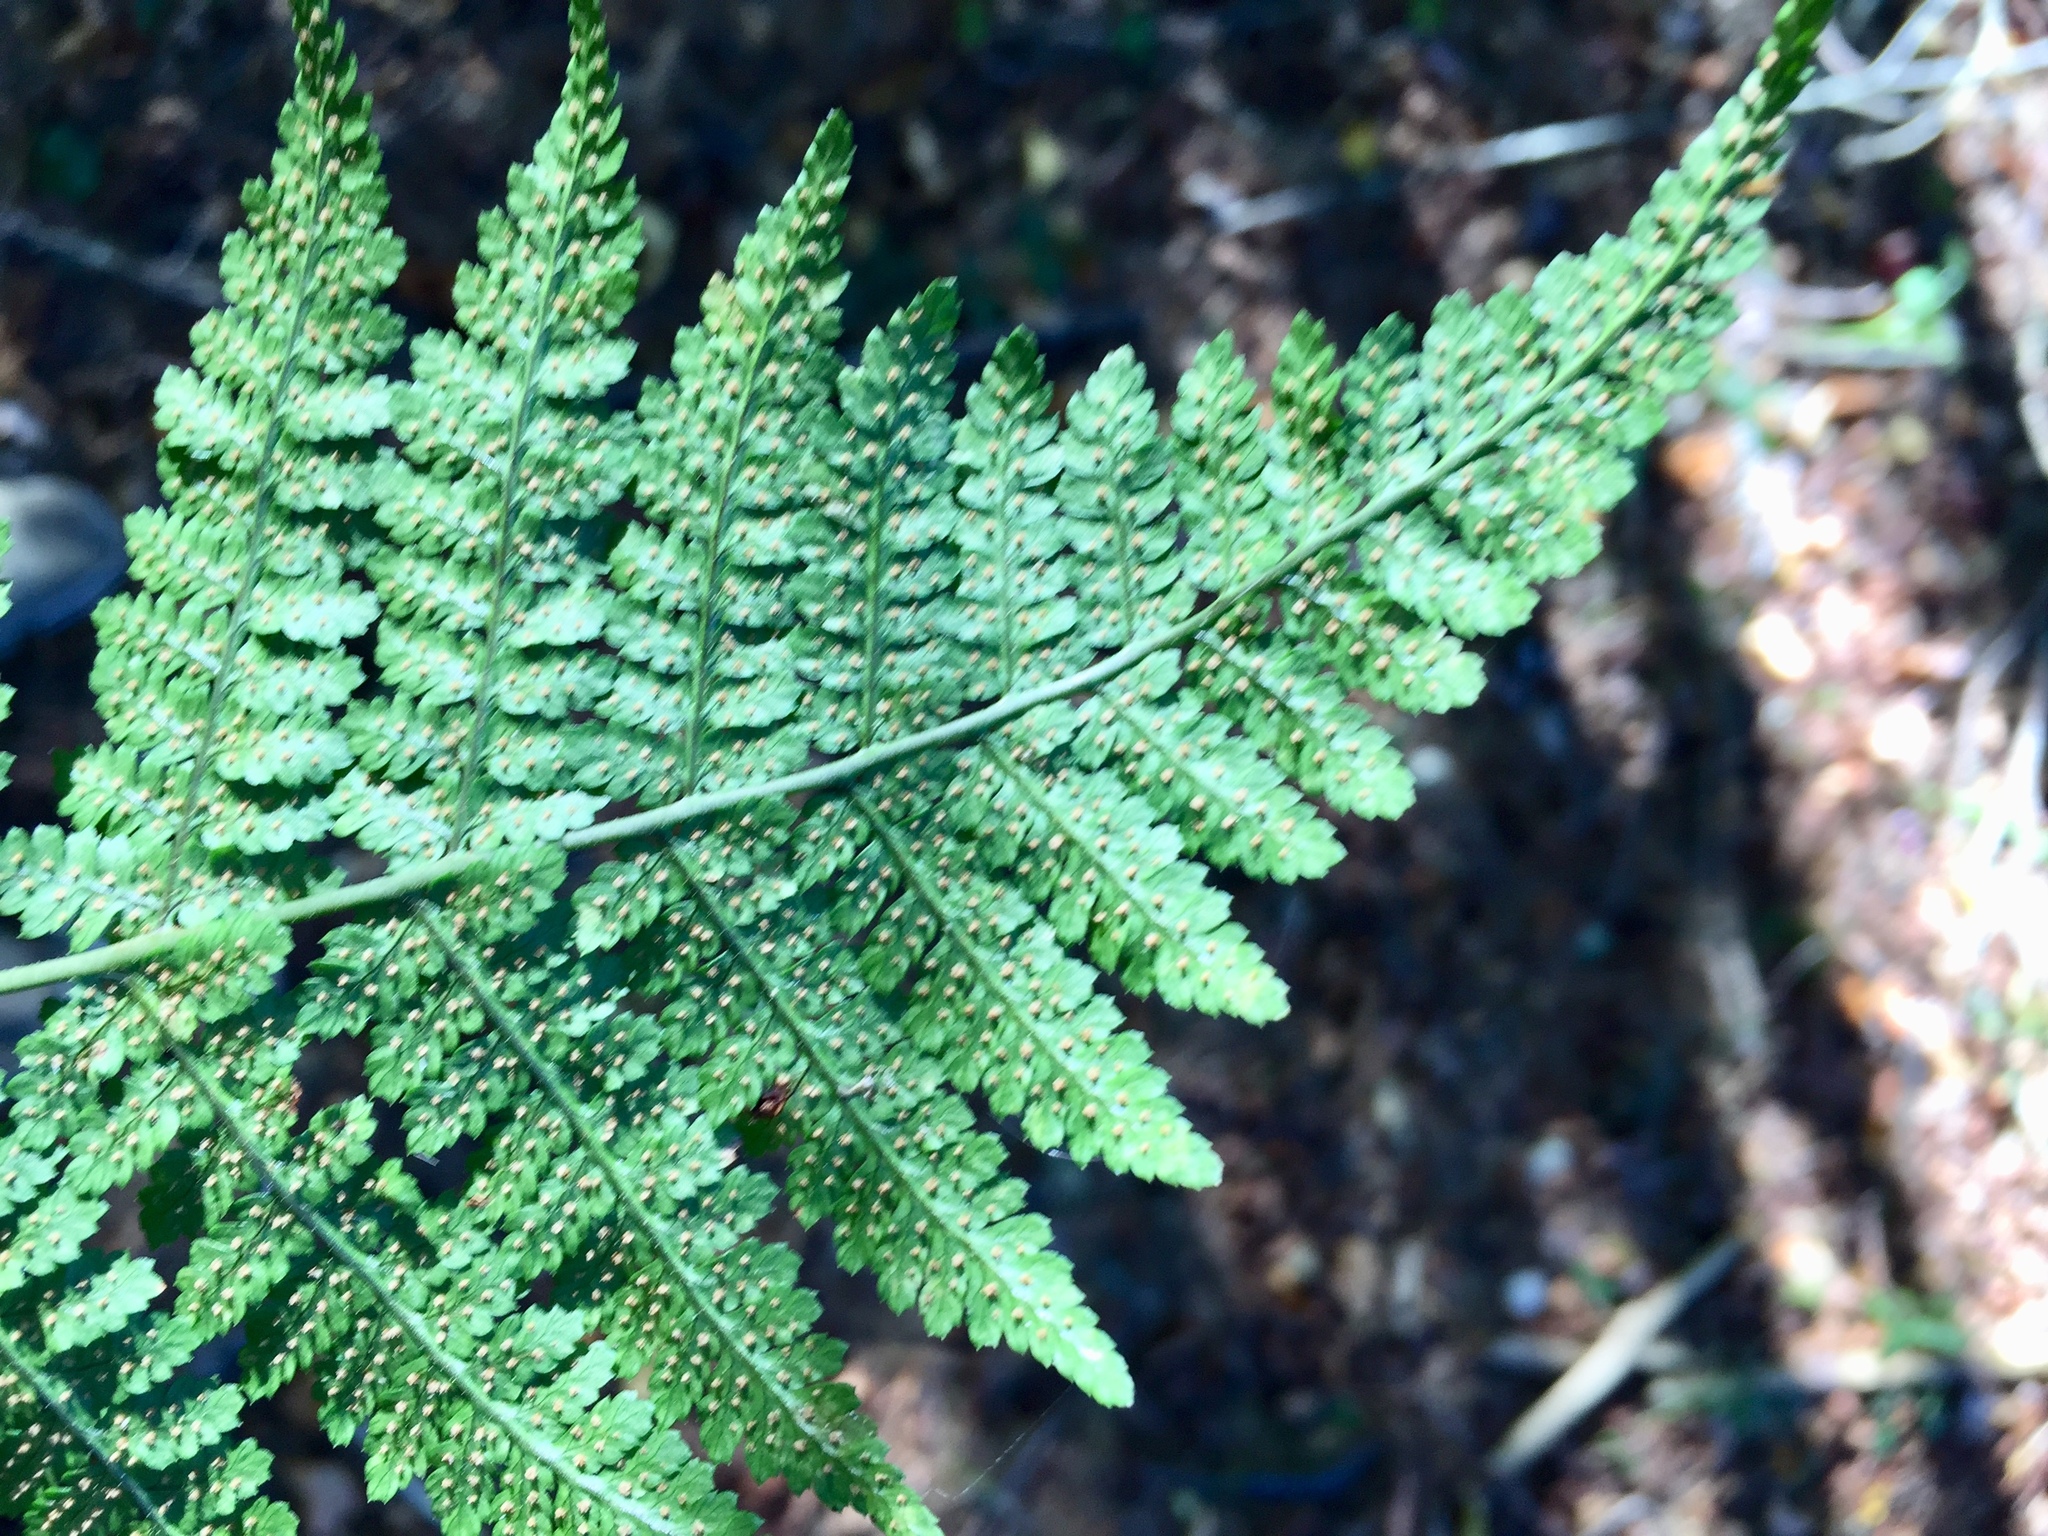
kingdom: Plantae
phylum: Tracheophyta
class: Polypodiopsida
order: Polypodiales
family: Dryopteridaceae
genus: Dryopteris
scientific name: Dryopteris intermedia
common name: Evergreen wood fern
